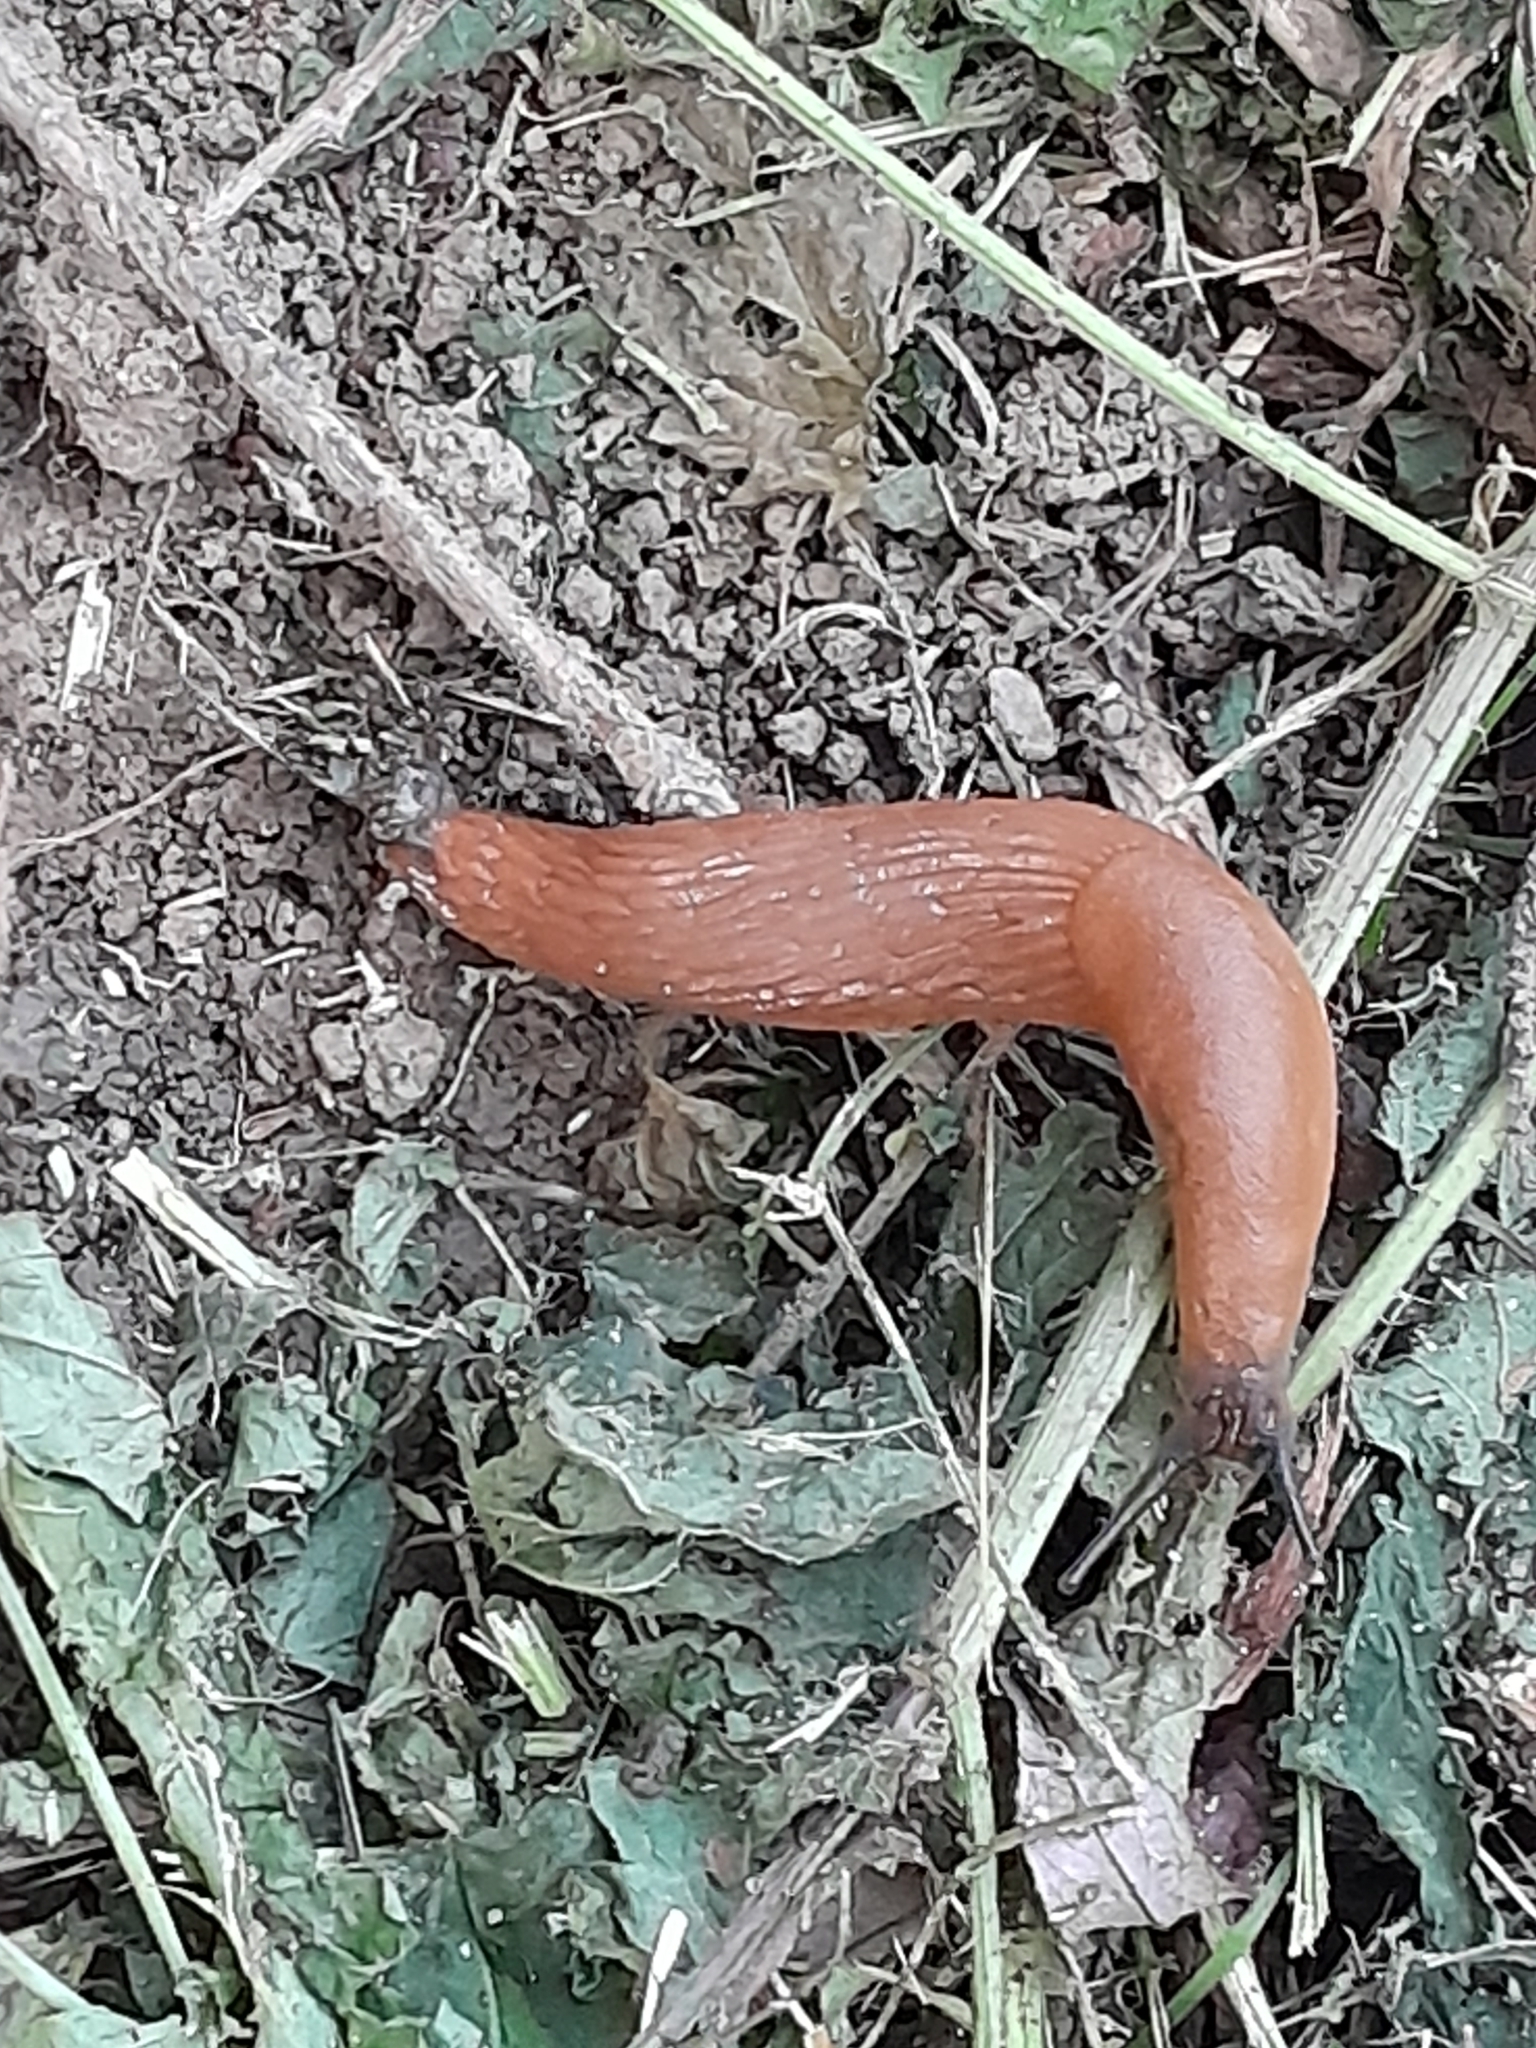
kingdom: Animalia
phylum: Mollusca
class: Gastropoda
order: Stylommatophora
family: Arionidae
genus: Arion
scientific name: Arion vulgaris
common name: Lusitanian slug
